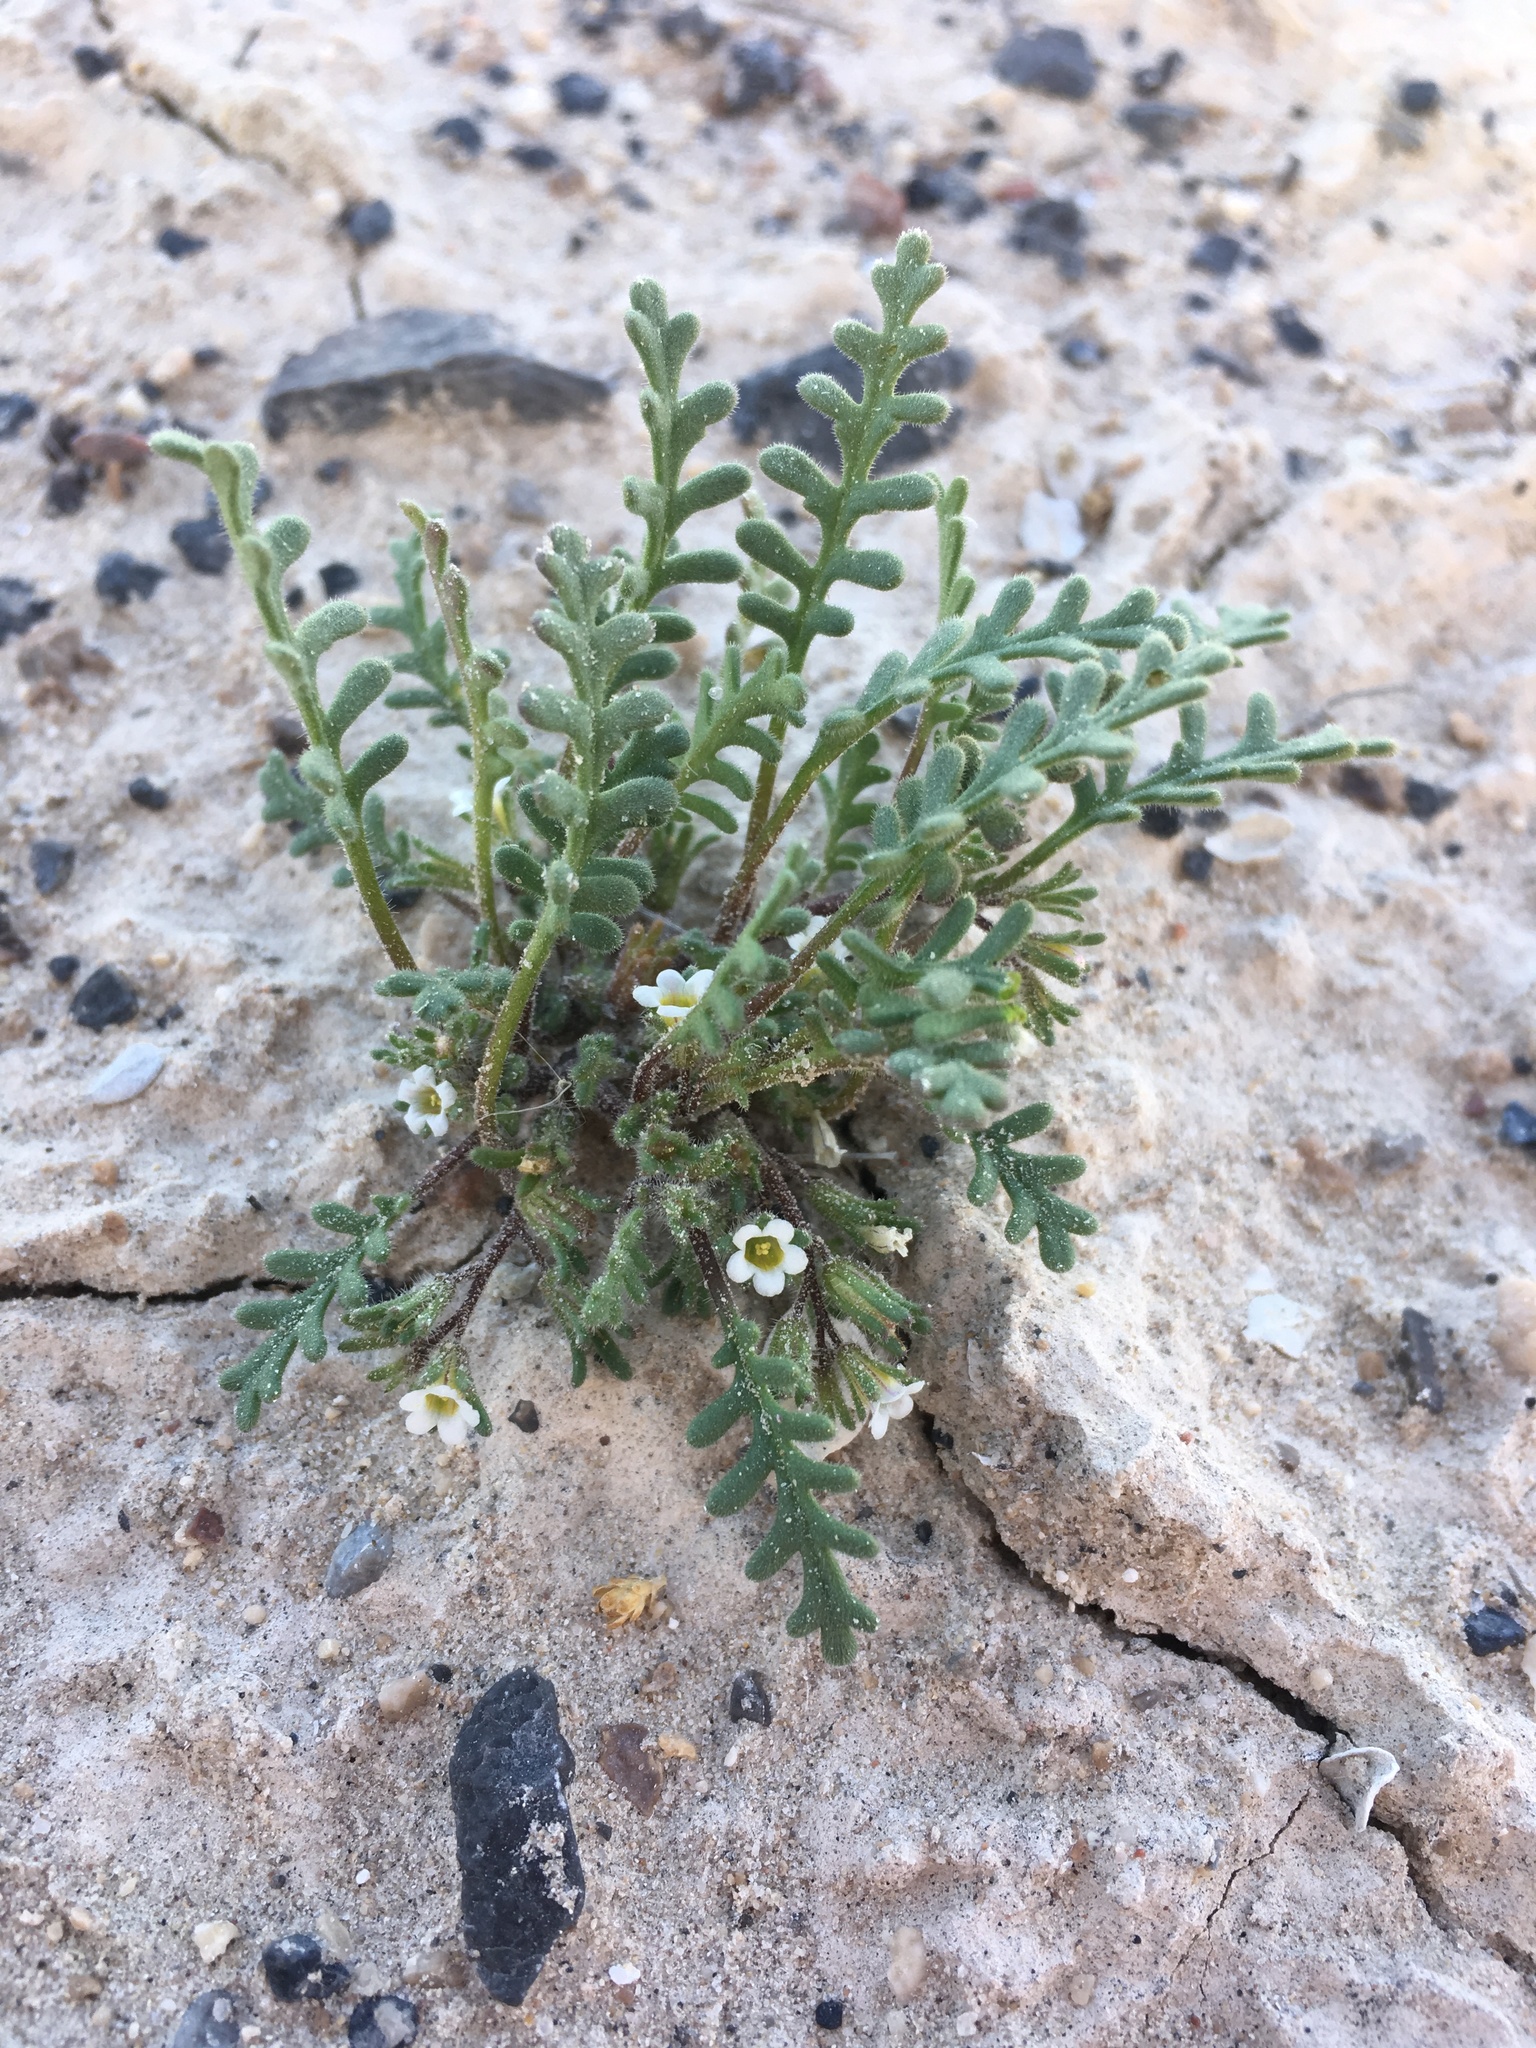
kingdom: Plantae
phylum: Tracheophyta
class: Magnoliopsida
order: Boraginales
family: Hydrophyllaceae
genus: Phacelia
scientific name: Phacelia ivesiana
